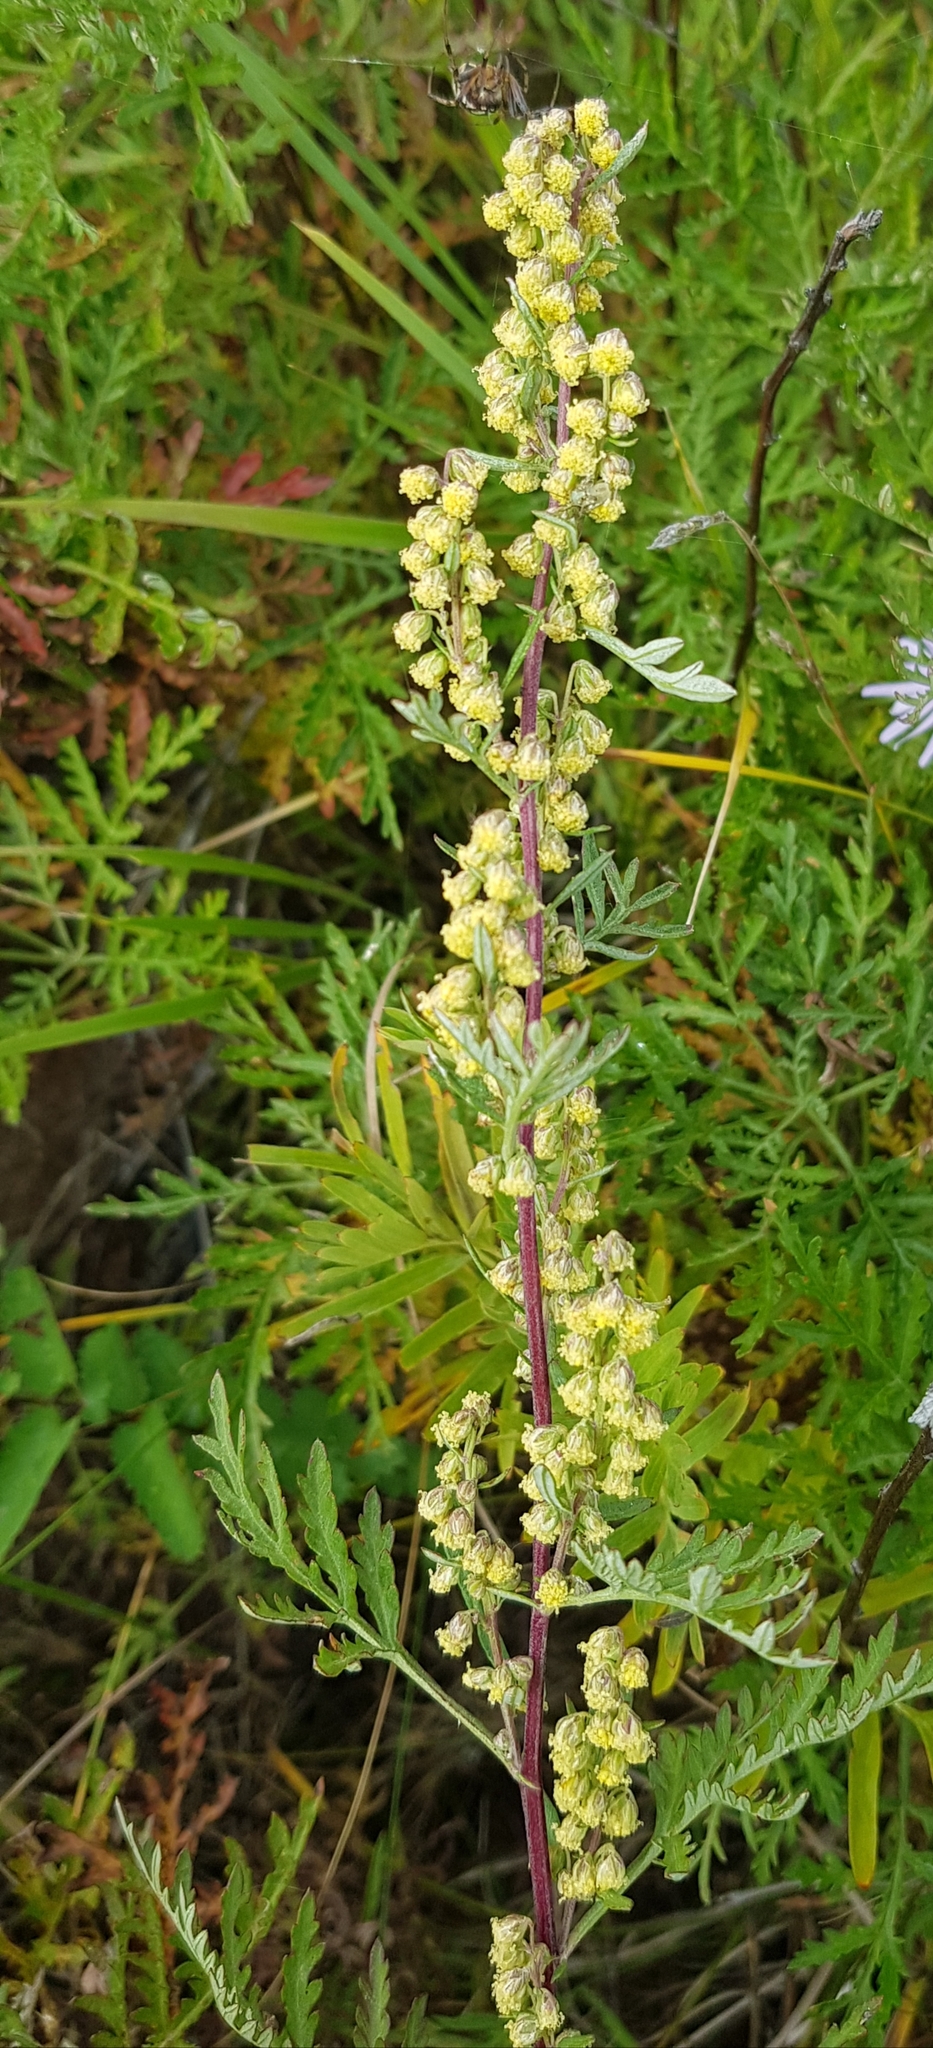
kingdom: Plantae
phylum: Tracheophyta
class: Magnoliopsida
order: Asterales
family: Asteraceae
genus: Artemisia
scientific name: Artemisia gmelinii
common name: Gmelin's wormwood
